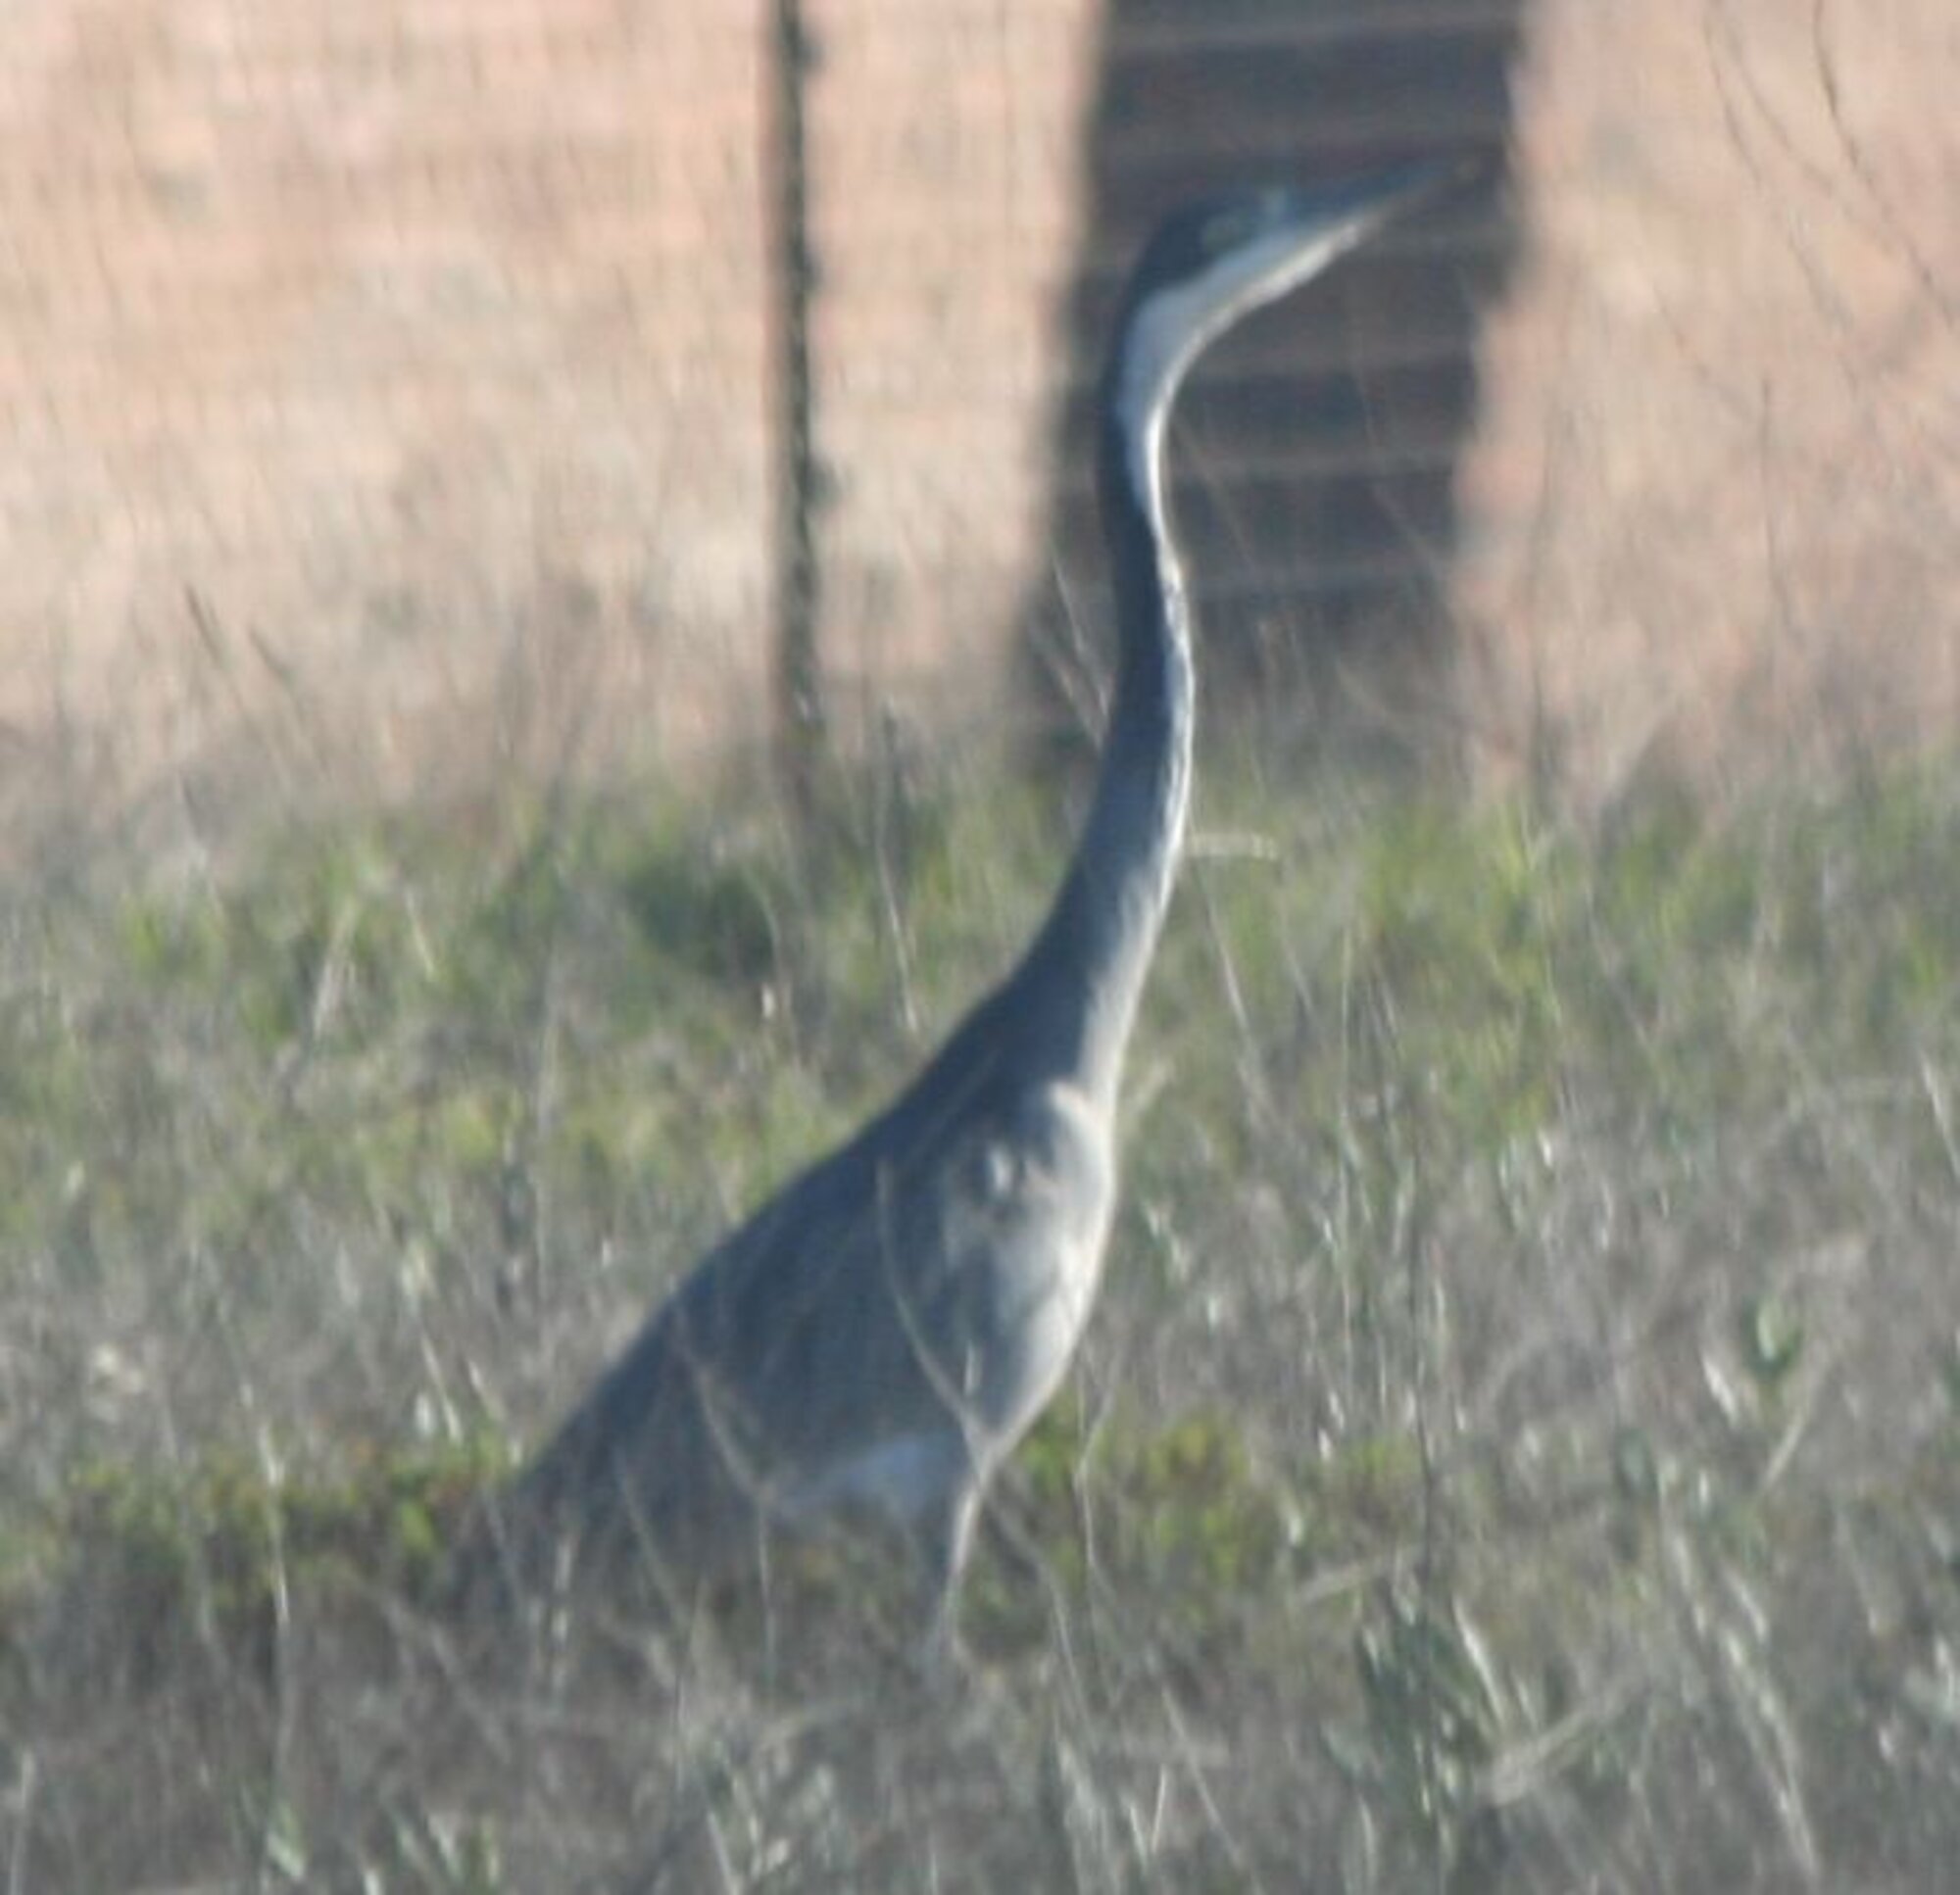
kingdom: Animalia
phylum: Chordata
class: Aves
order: Pelecaniformes
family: Ardeidae
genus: Ardea
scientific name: Ardea melanocephala
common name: Black-headed heron
